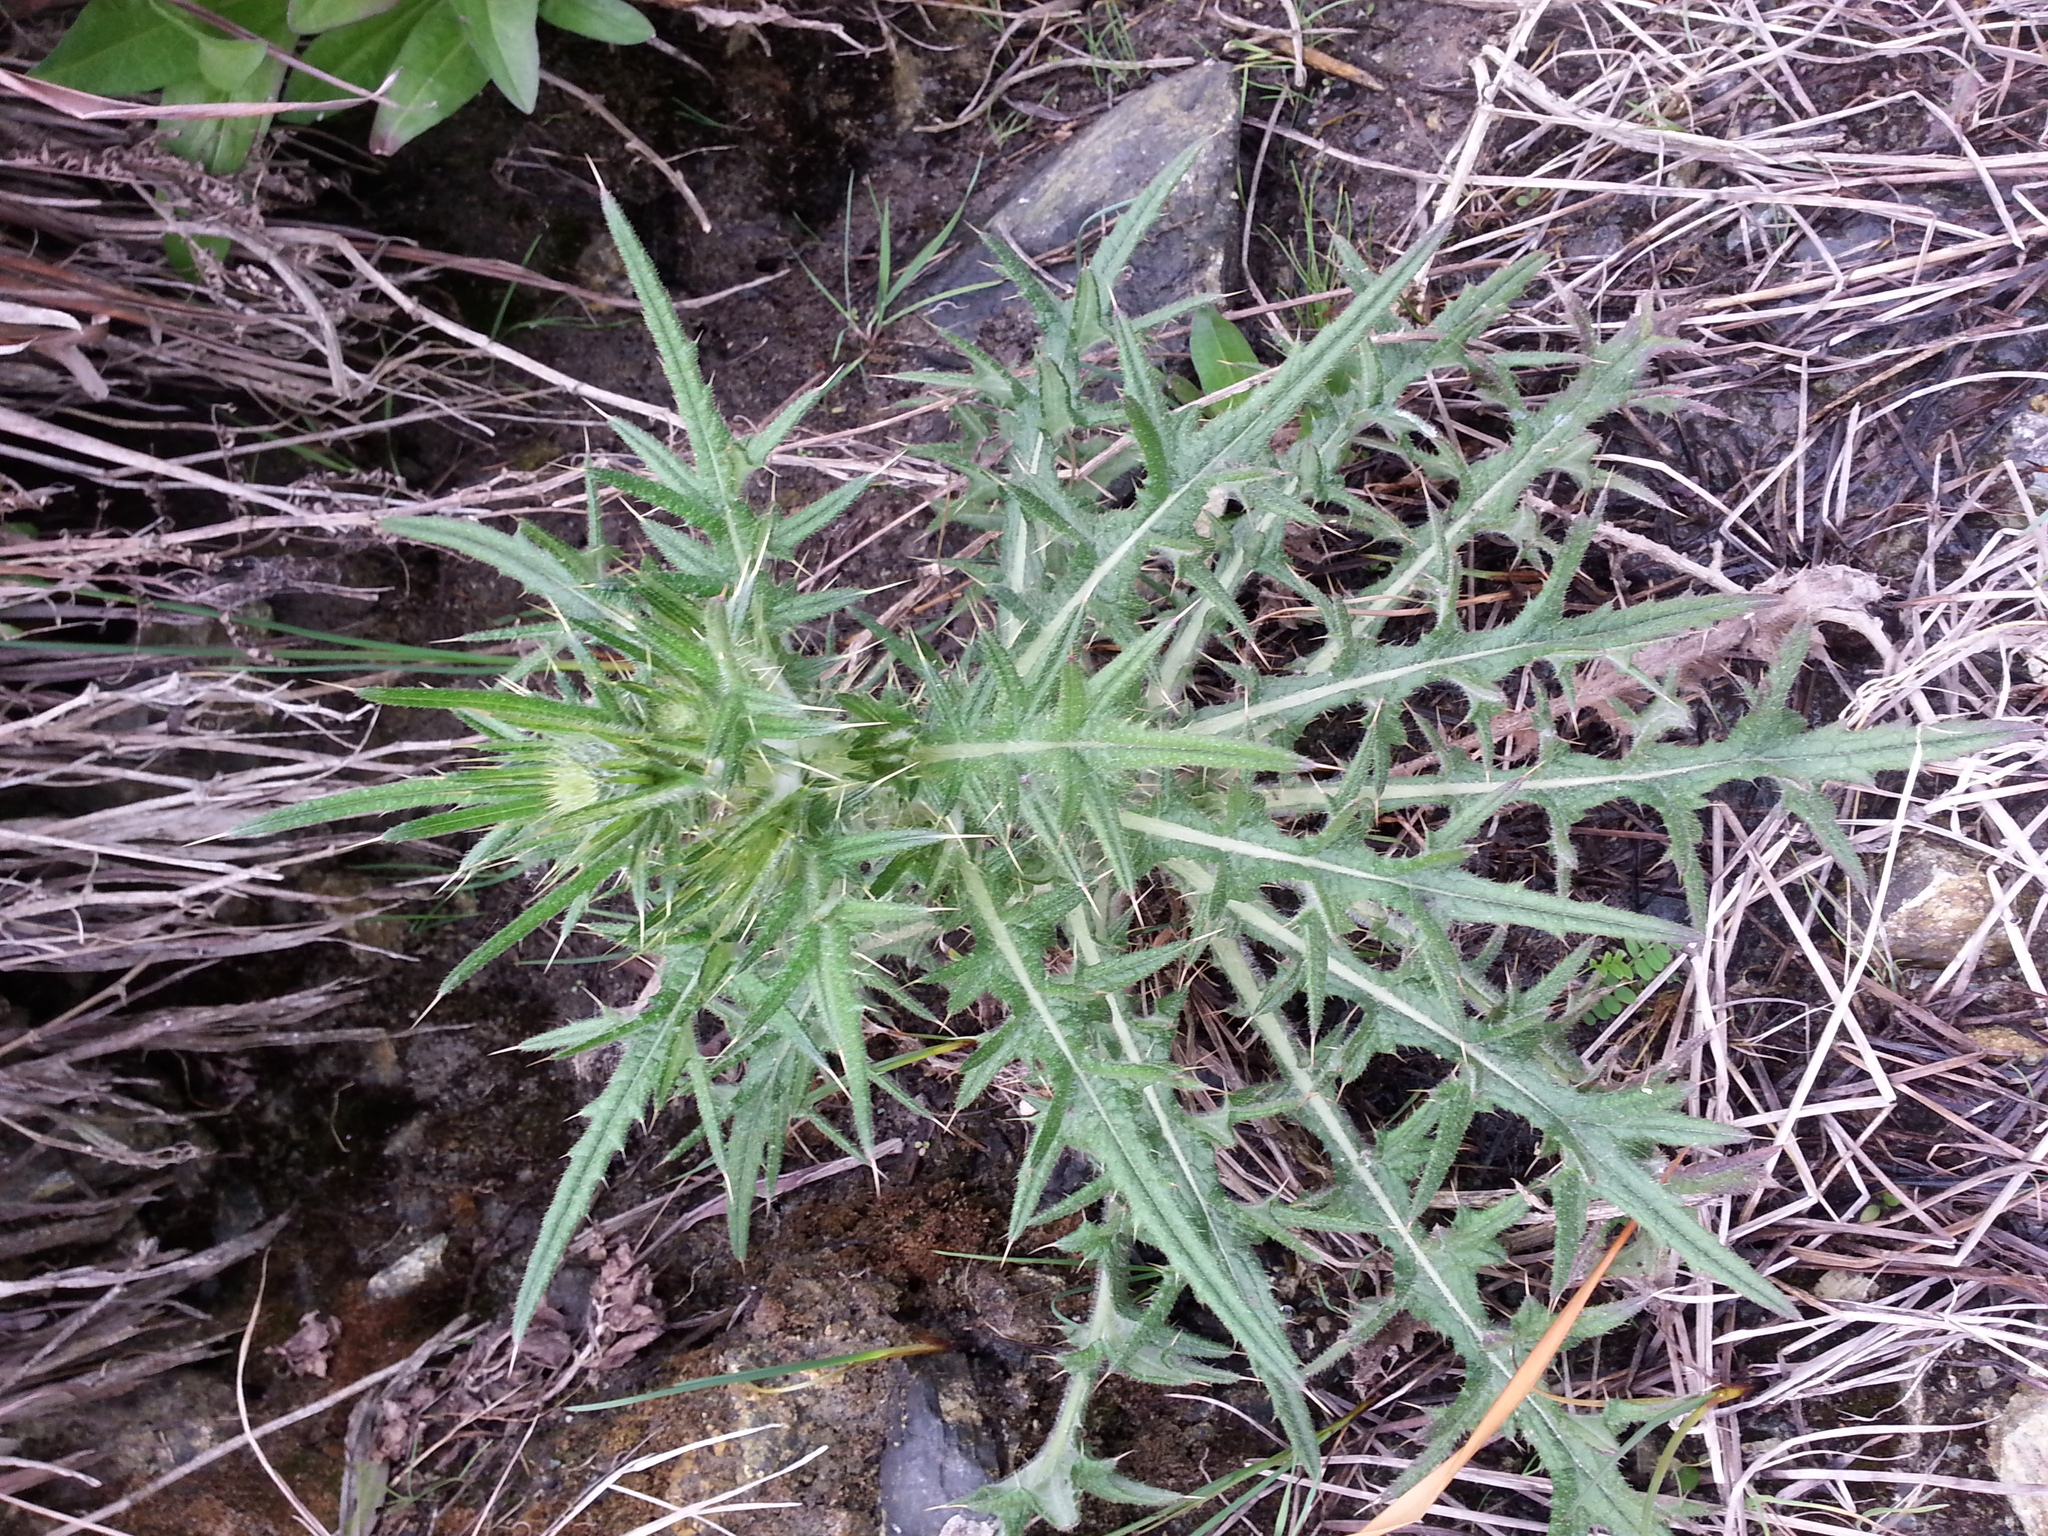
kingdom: Plantae
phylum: Tracheophyta
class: Magnoliopsida
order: Asterales
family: Asteraceae
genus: Cirsium
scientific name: Cirsium vulgare
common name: Bull thistle
